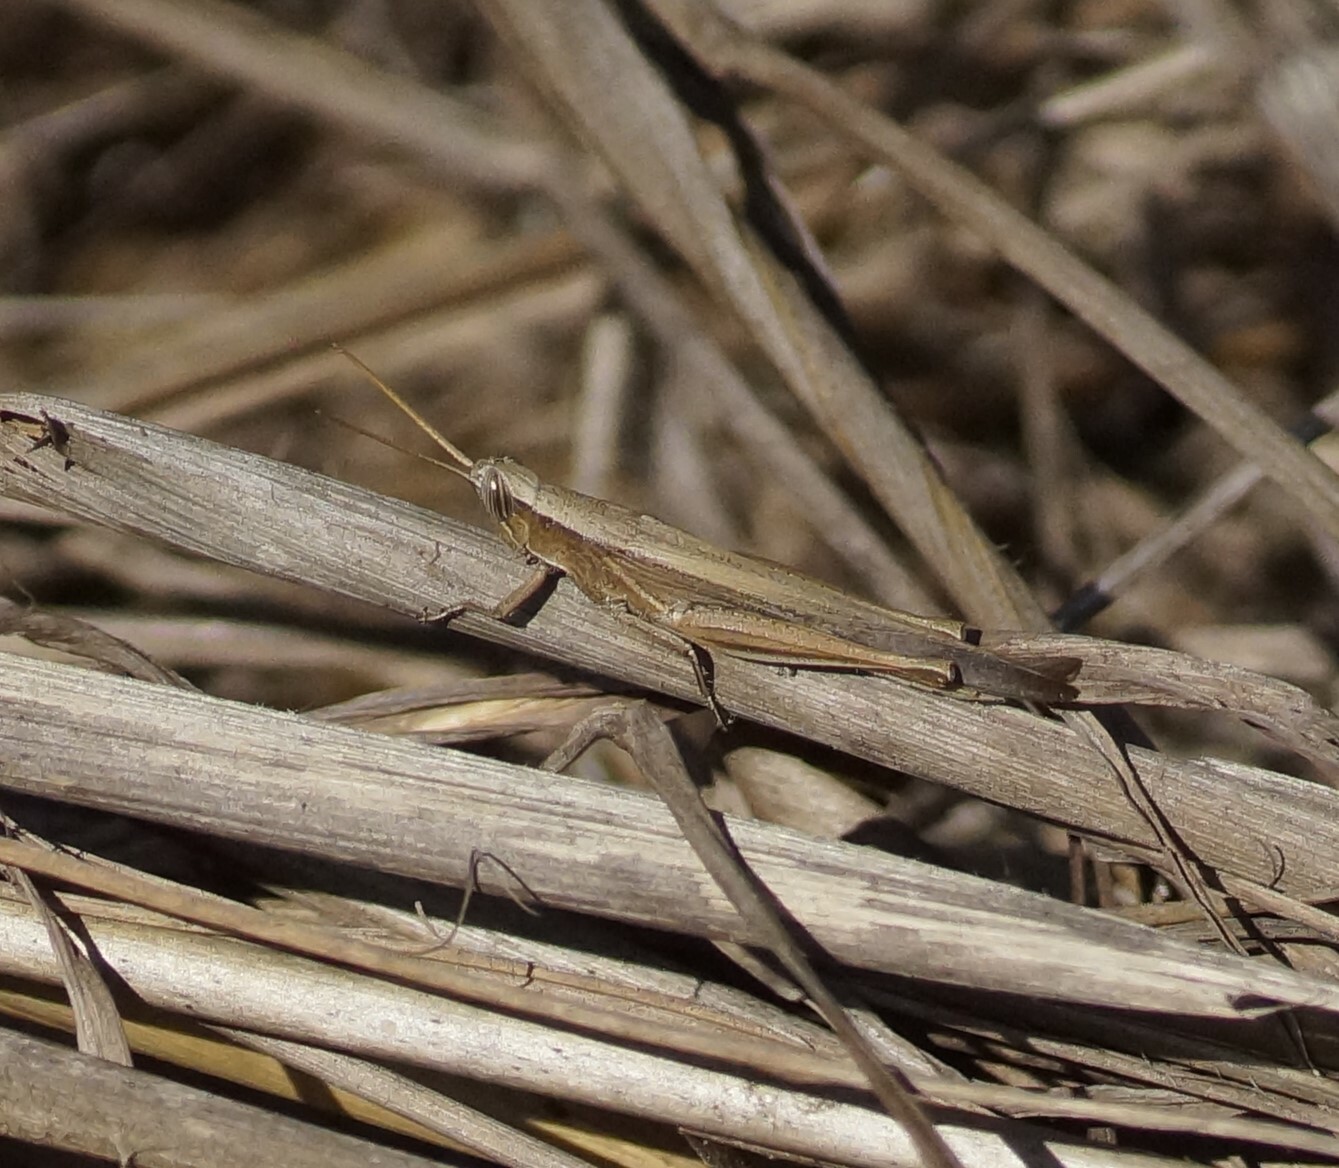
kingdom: Animalia
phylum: Arthropoda
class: Insecta
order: Orthoptera
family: Acrididae
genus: Stenocatantops
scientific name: Stenocatantops vitripennis
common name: Light-brown sharptail
